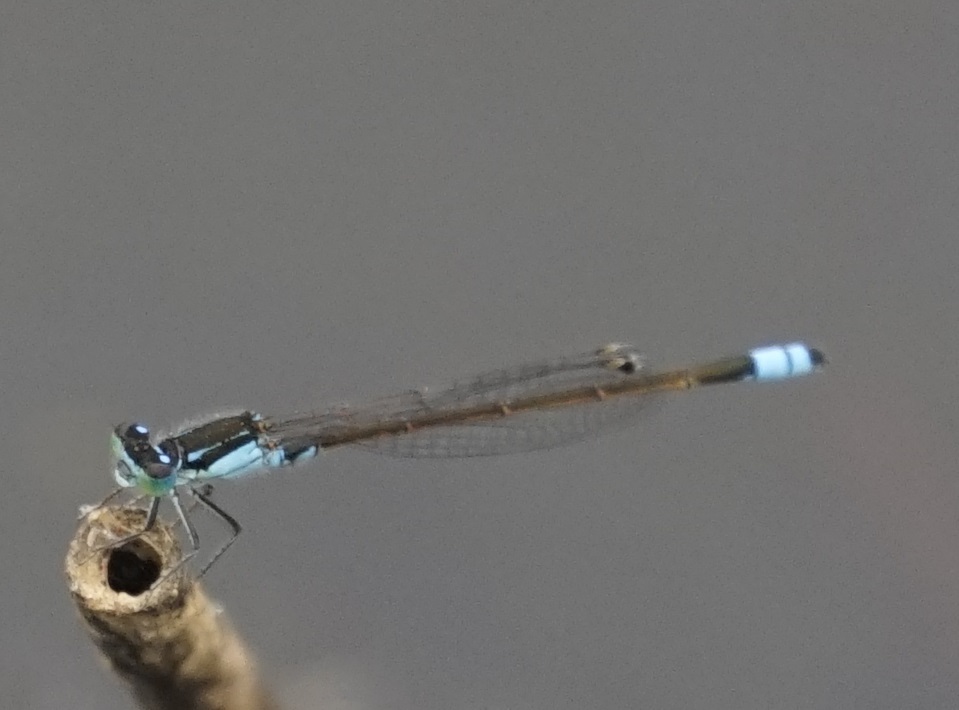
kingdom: Animalia
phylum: Arthropoda
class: Insecta
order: Odonata
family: Coenagrionidae
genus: Ischnura
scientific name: Ischnura heterosticta
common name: Common bluetail
